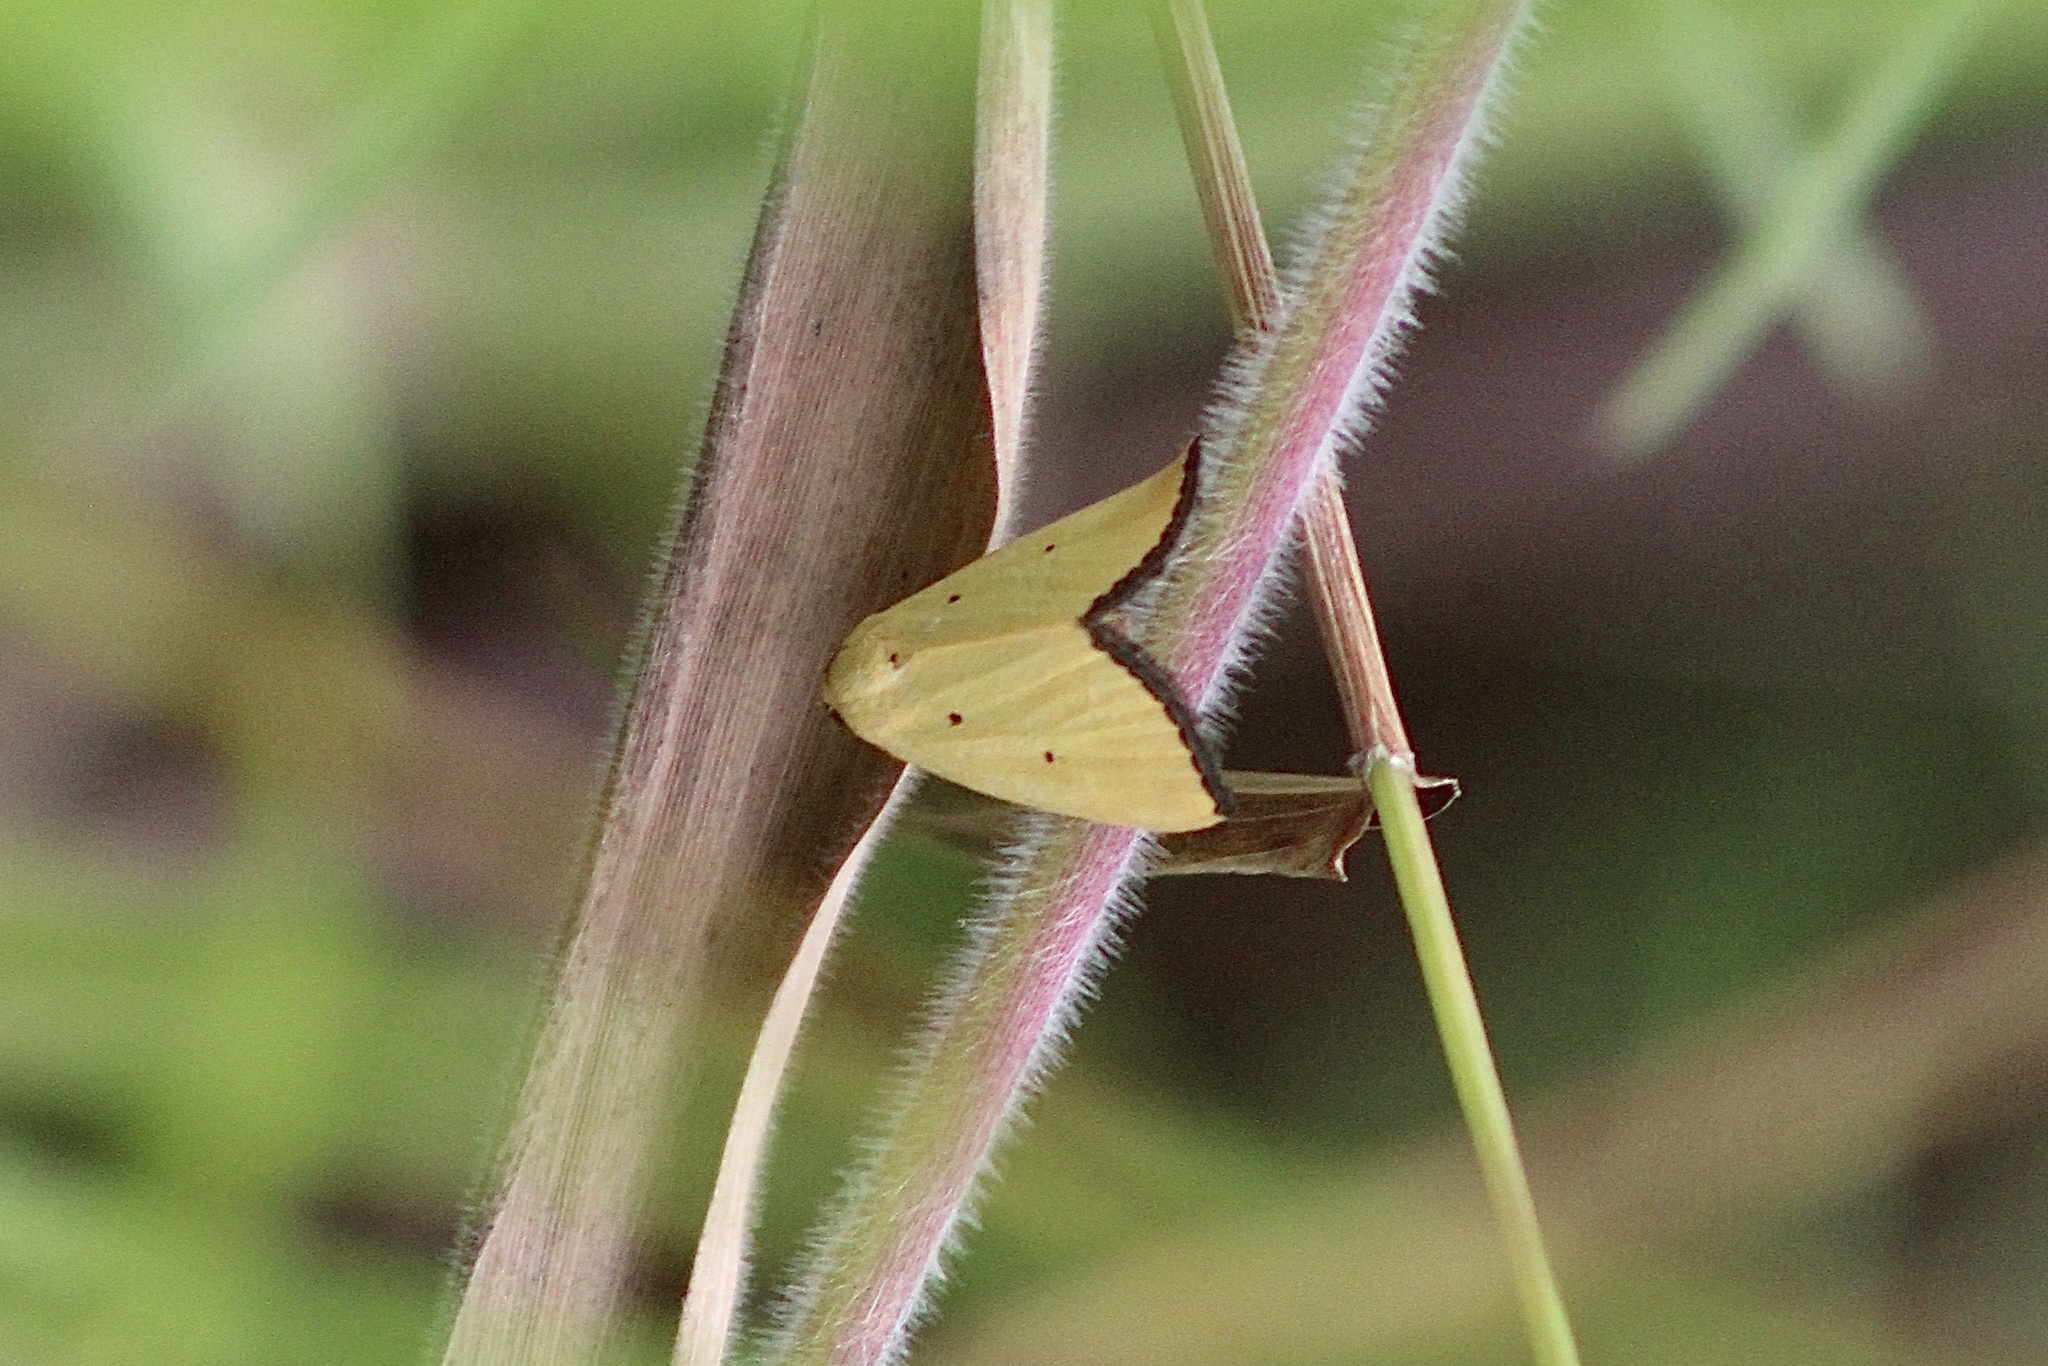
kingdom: Animalia
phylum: Arthropoda
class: Insecta
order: Lepidoptera
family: Noctuidae
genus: Marimatha
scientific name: Marimatha nigrofimbria
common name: Black-bordered lemon moth
